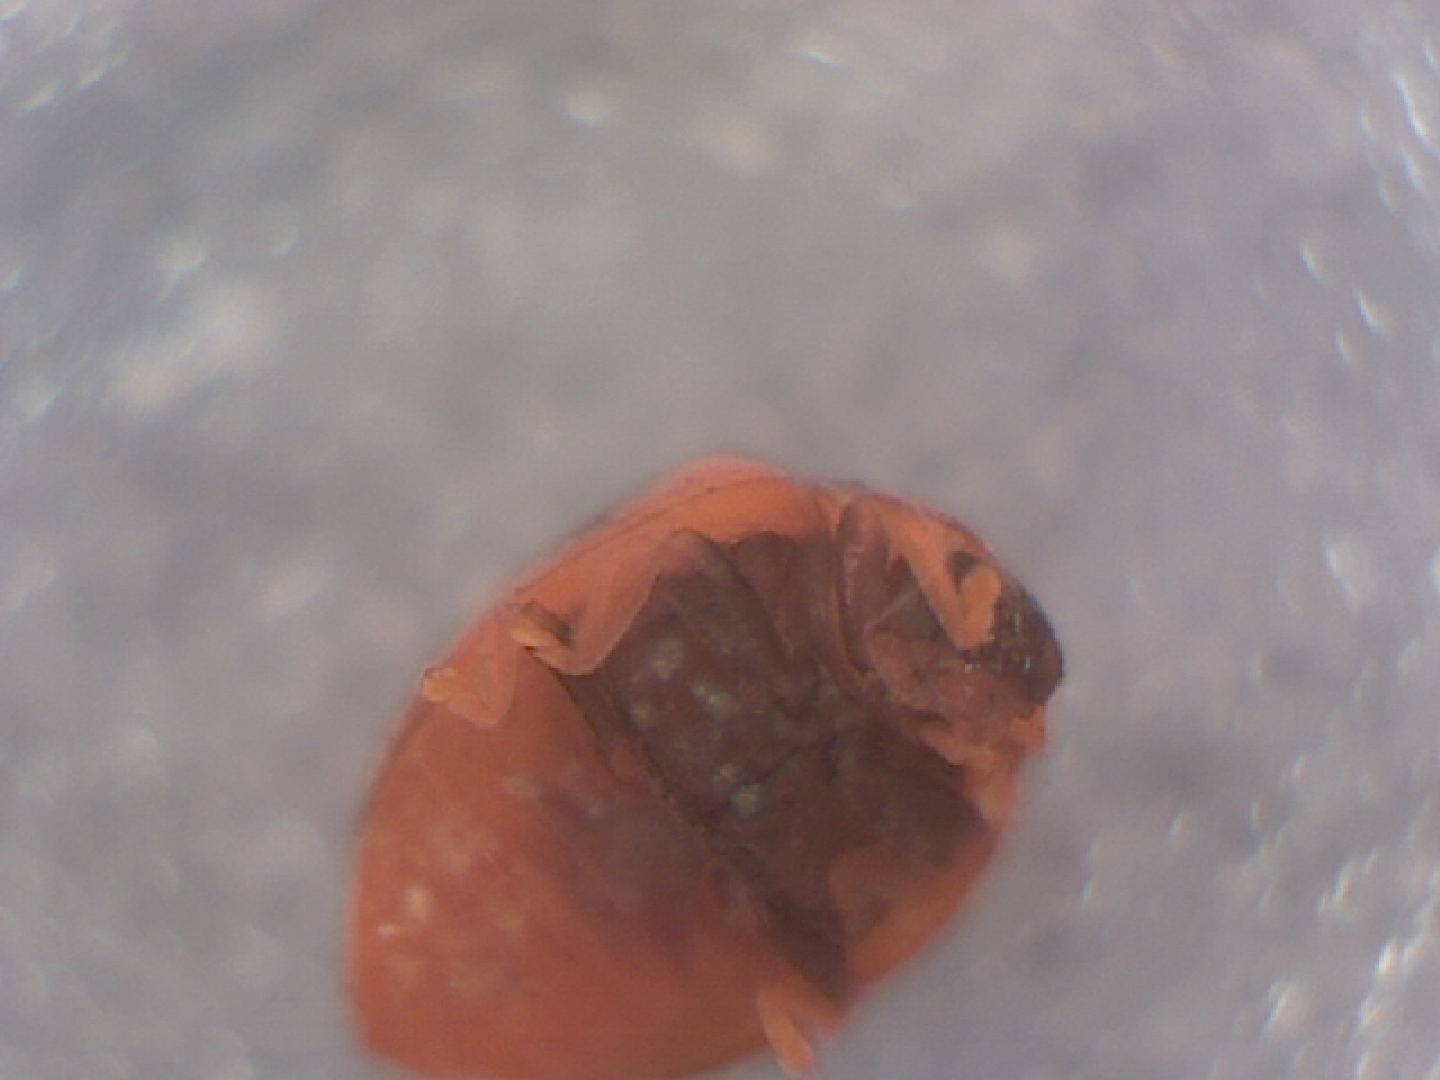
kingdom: Animalia
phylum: Arthropoda
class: Insecta
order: Coleoptera
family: Coccinellidae
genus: Novius
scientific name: Novius cardinalis
